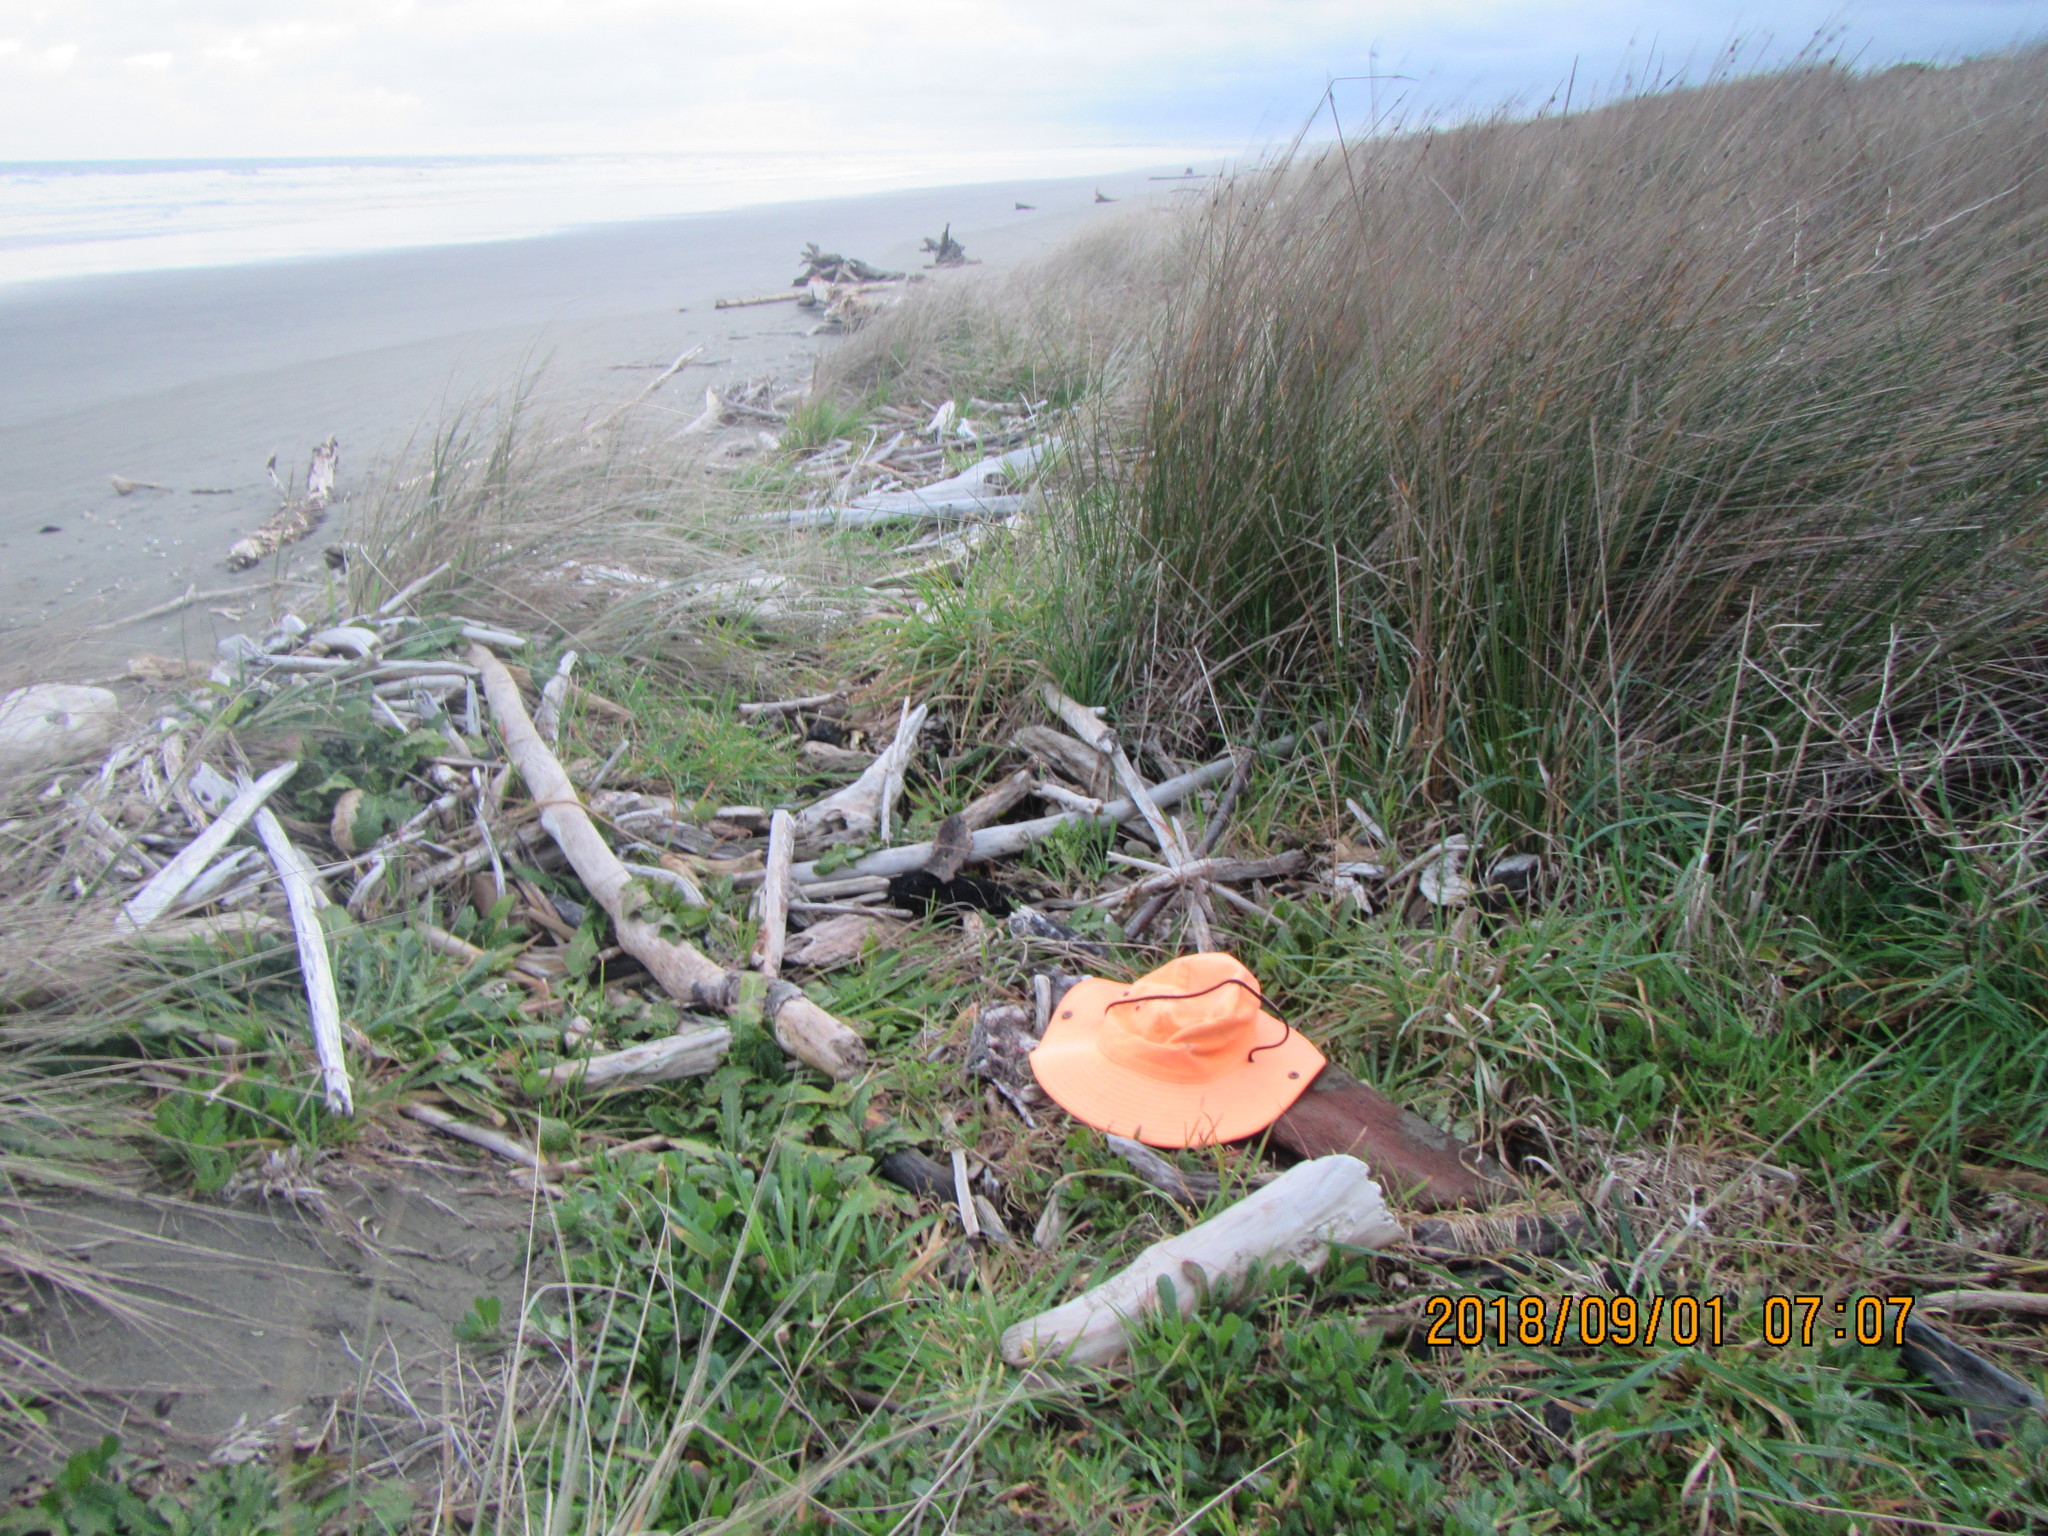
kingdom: Animalia
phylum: Arthropoda
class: Arachnida
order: Araneae
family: Theridiidae
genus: Steatoda
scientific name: Steatoda capensis
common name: Cobweb weaver
